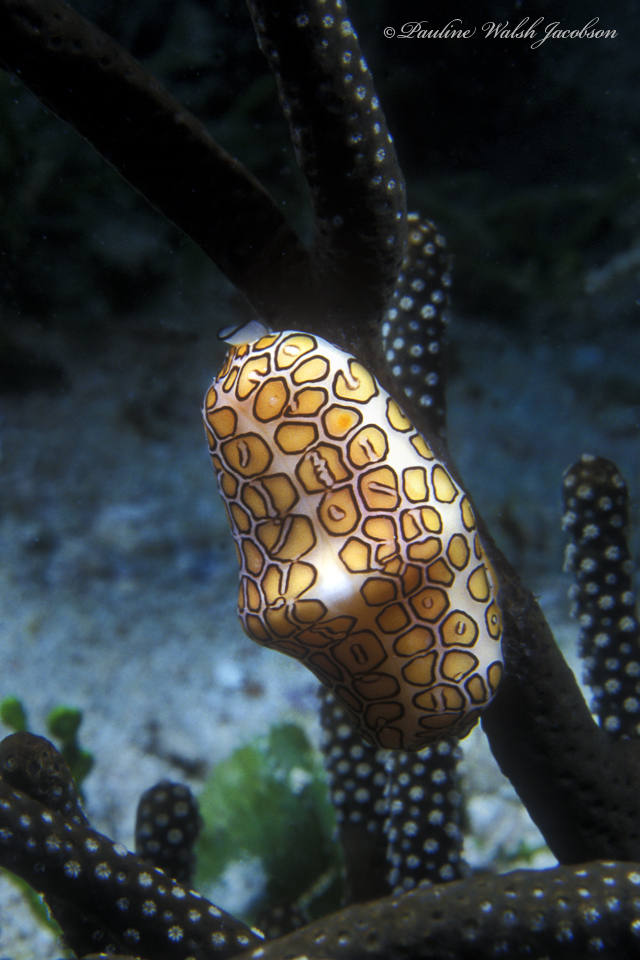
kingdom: Animalia
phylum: Mollusca
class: Gastropoda
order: Littorinimorpha
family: Ovulidae
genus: Cyphoma
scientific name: Cyphoma gibbosum
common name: Flamingo tongue
